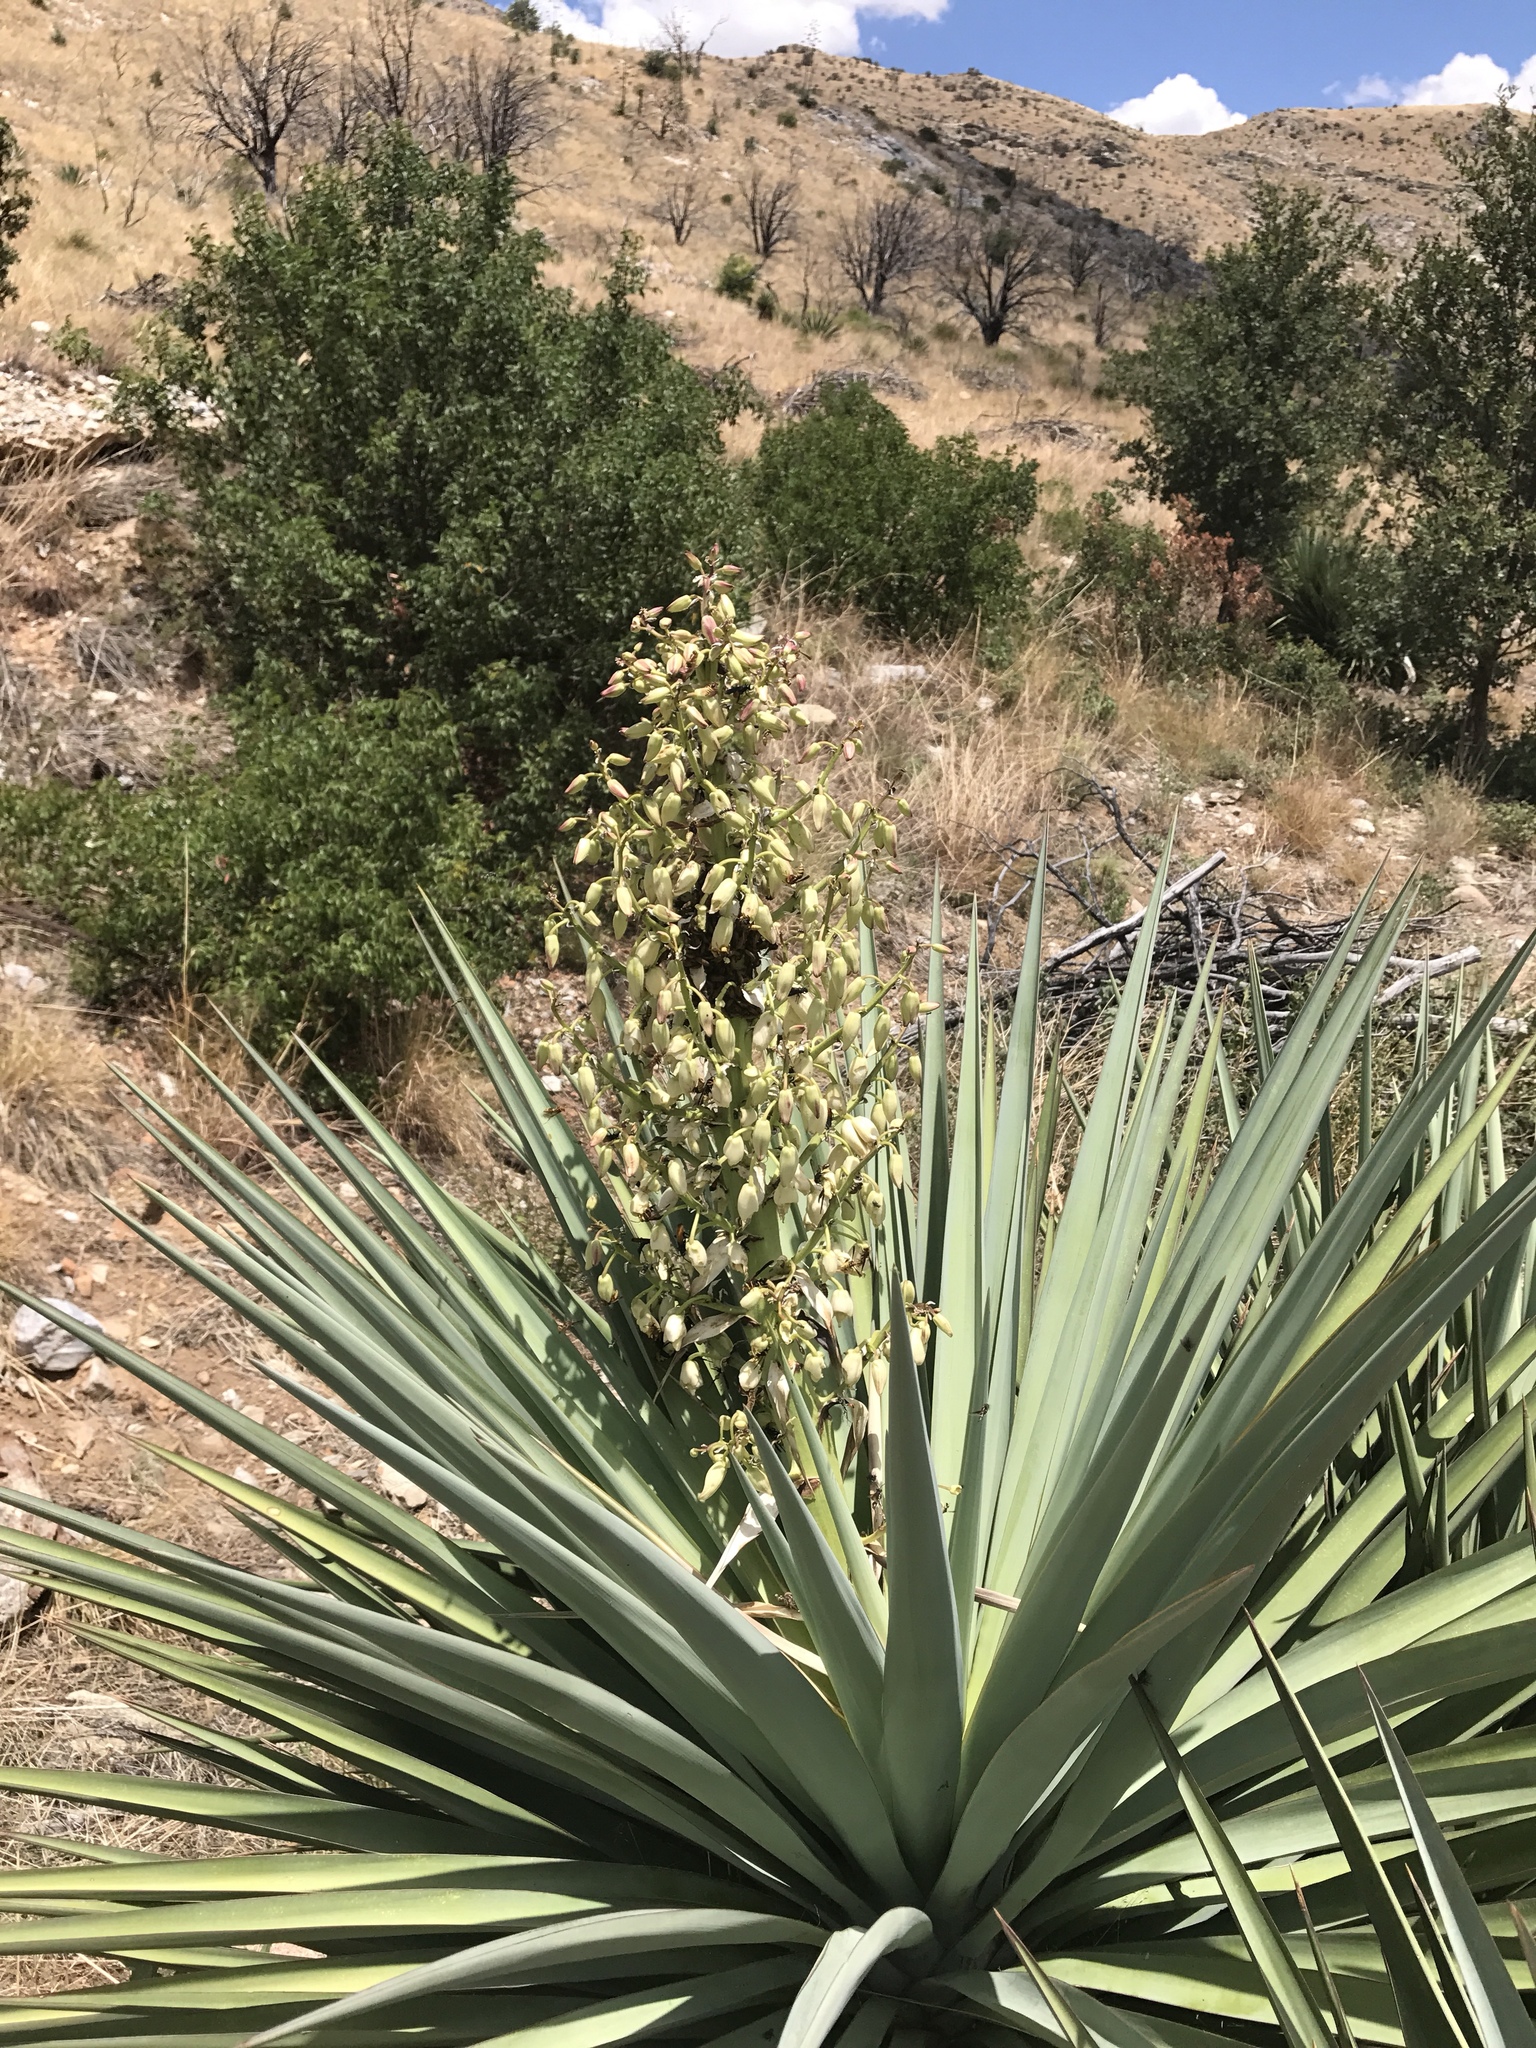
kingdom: Plantae
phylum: Tracheophyta
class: Liliopsida
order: Asparagales
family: Asparagaceae
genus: Yucca
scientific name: Yucca madrensis
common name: Hoary yucca
